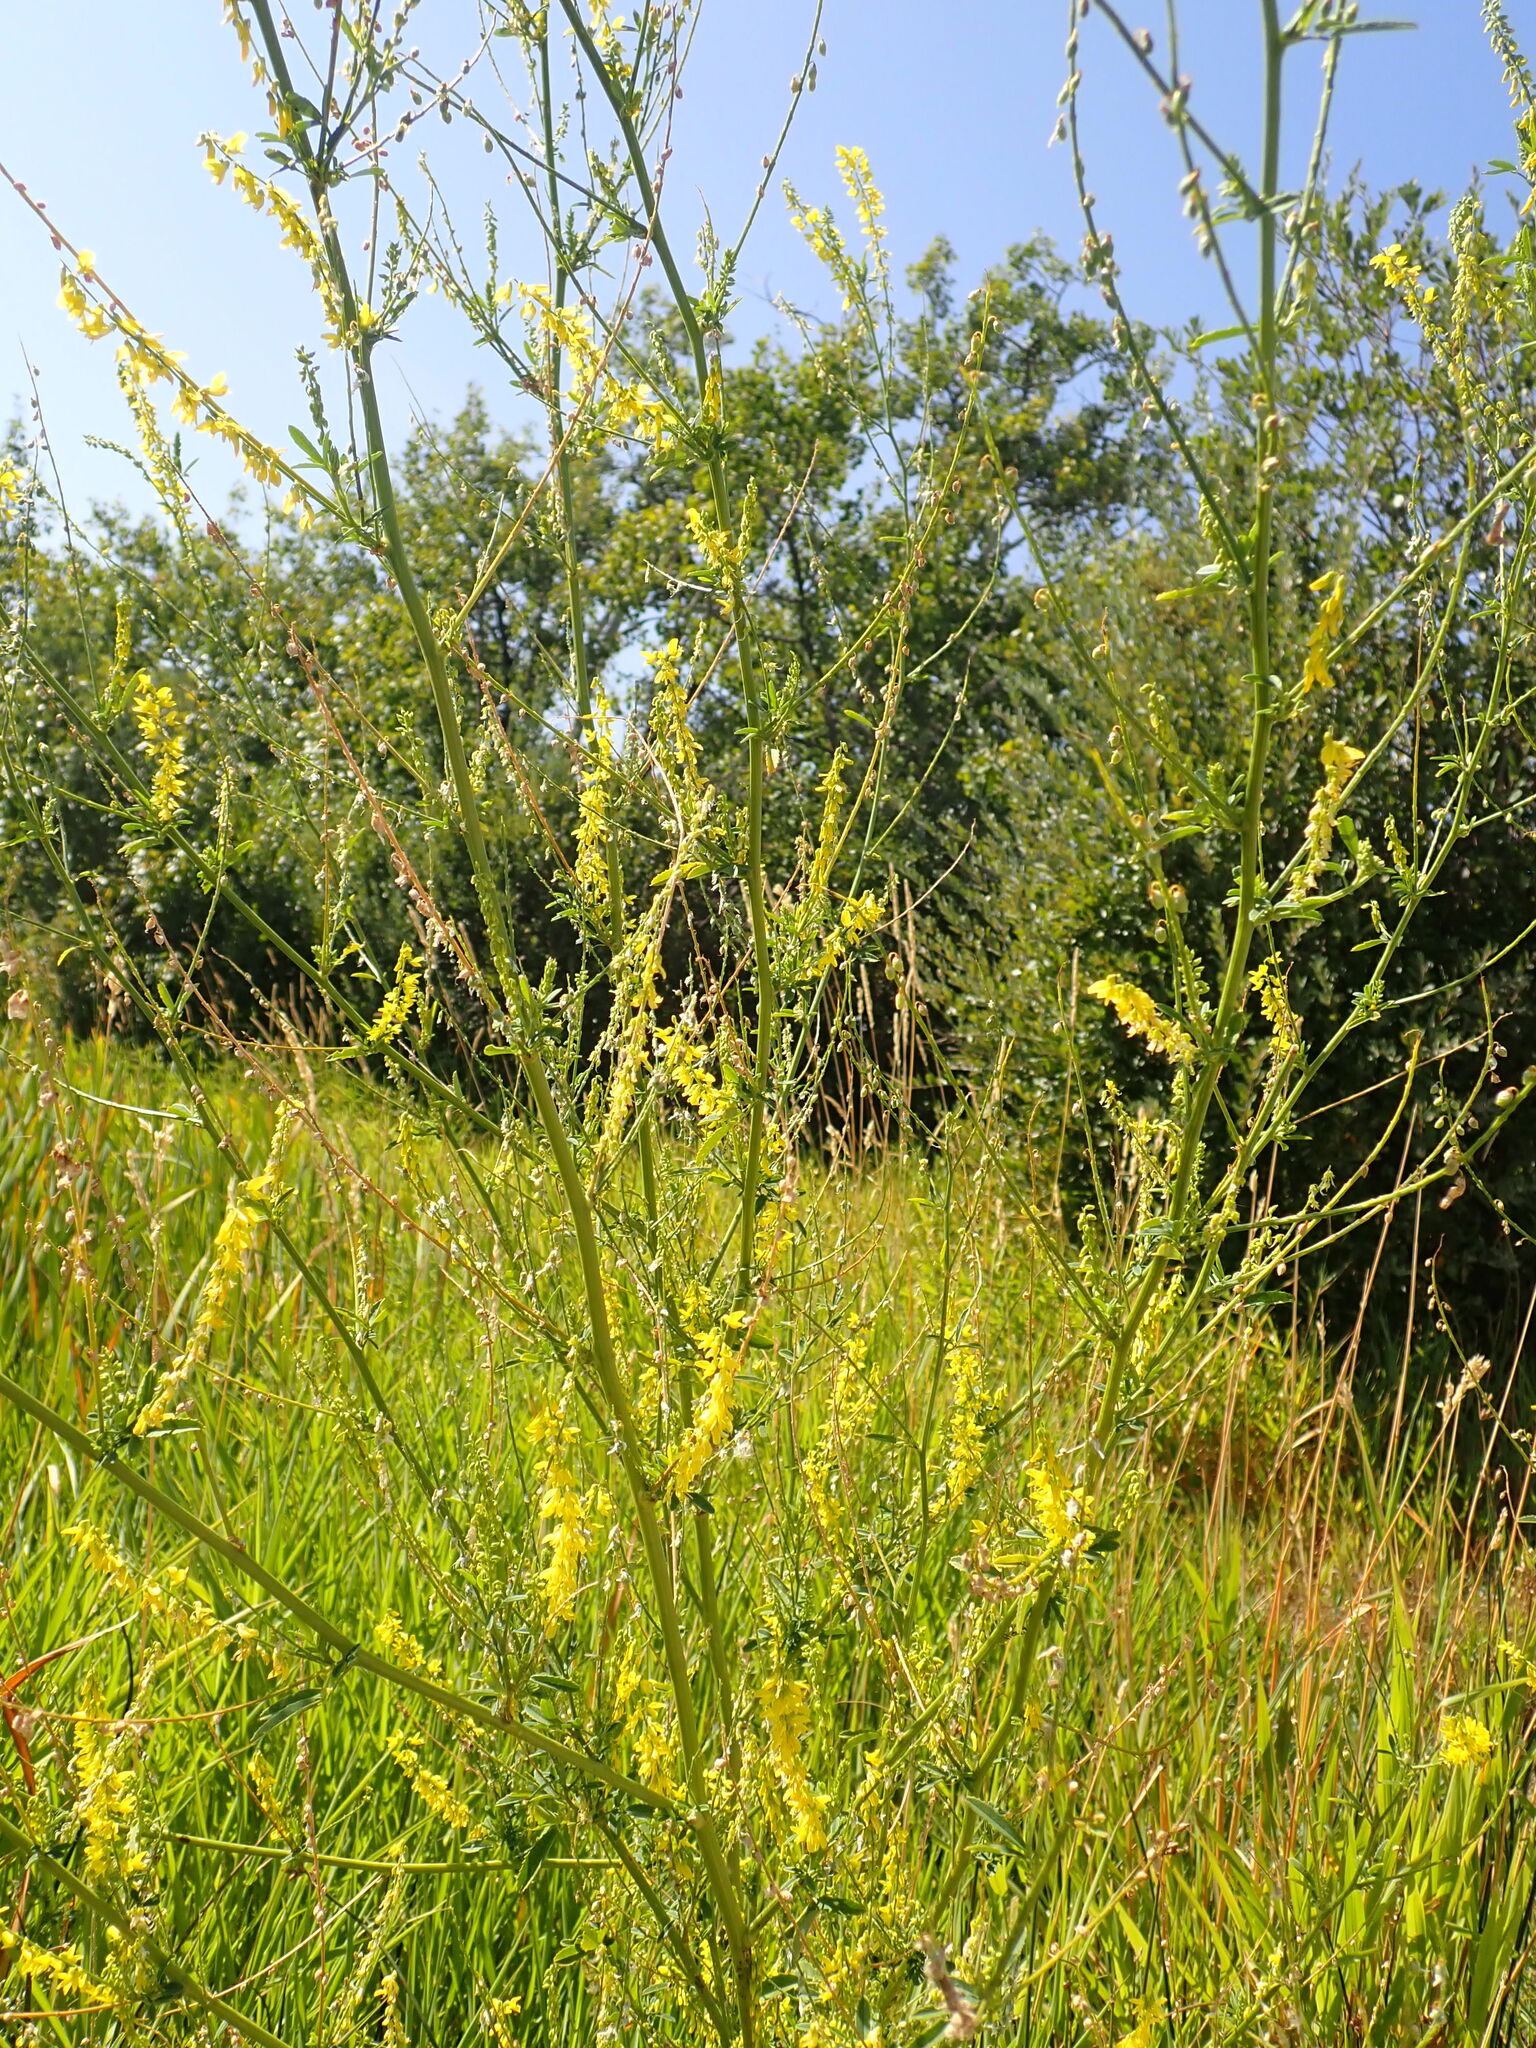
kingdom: Plantae
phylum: Tracheophyta
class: Magnoliopsida
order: Fabales
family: Fabaceae
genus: Melilotus
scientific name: Melilotus officinalis
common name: Sweetclover
